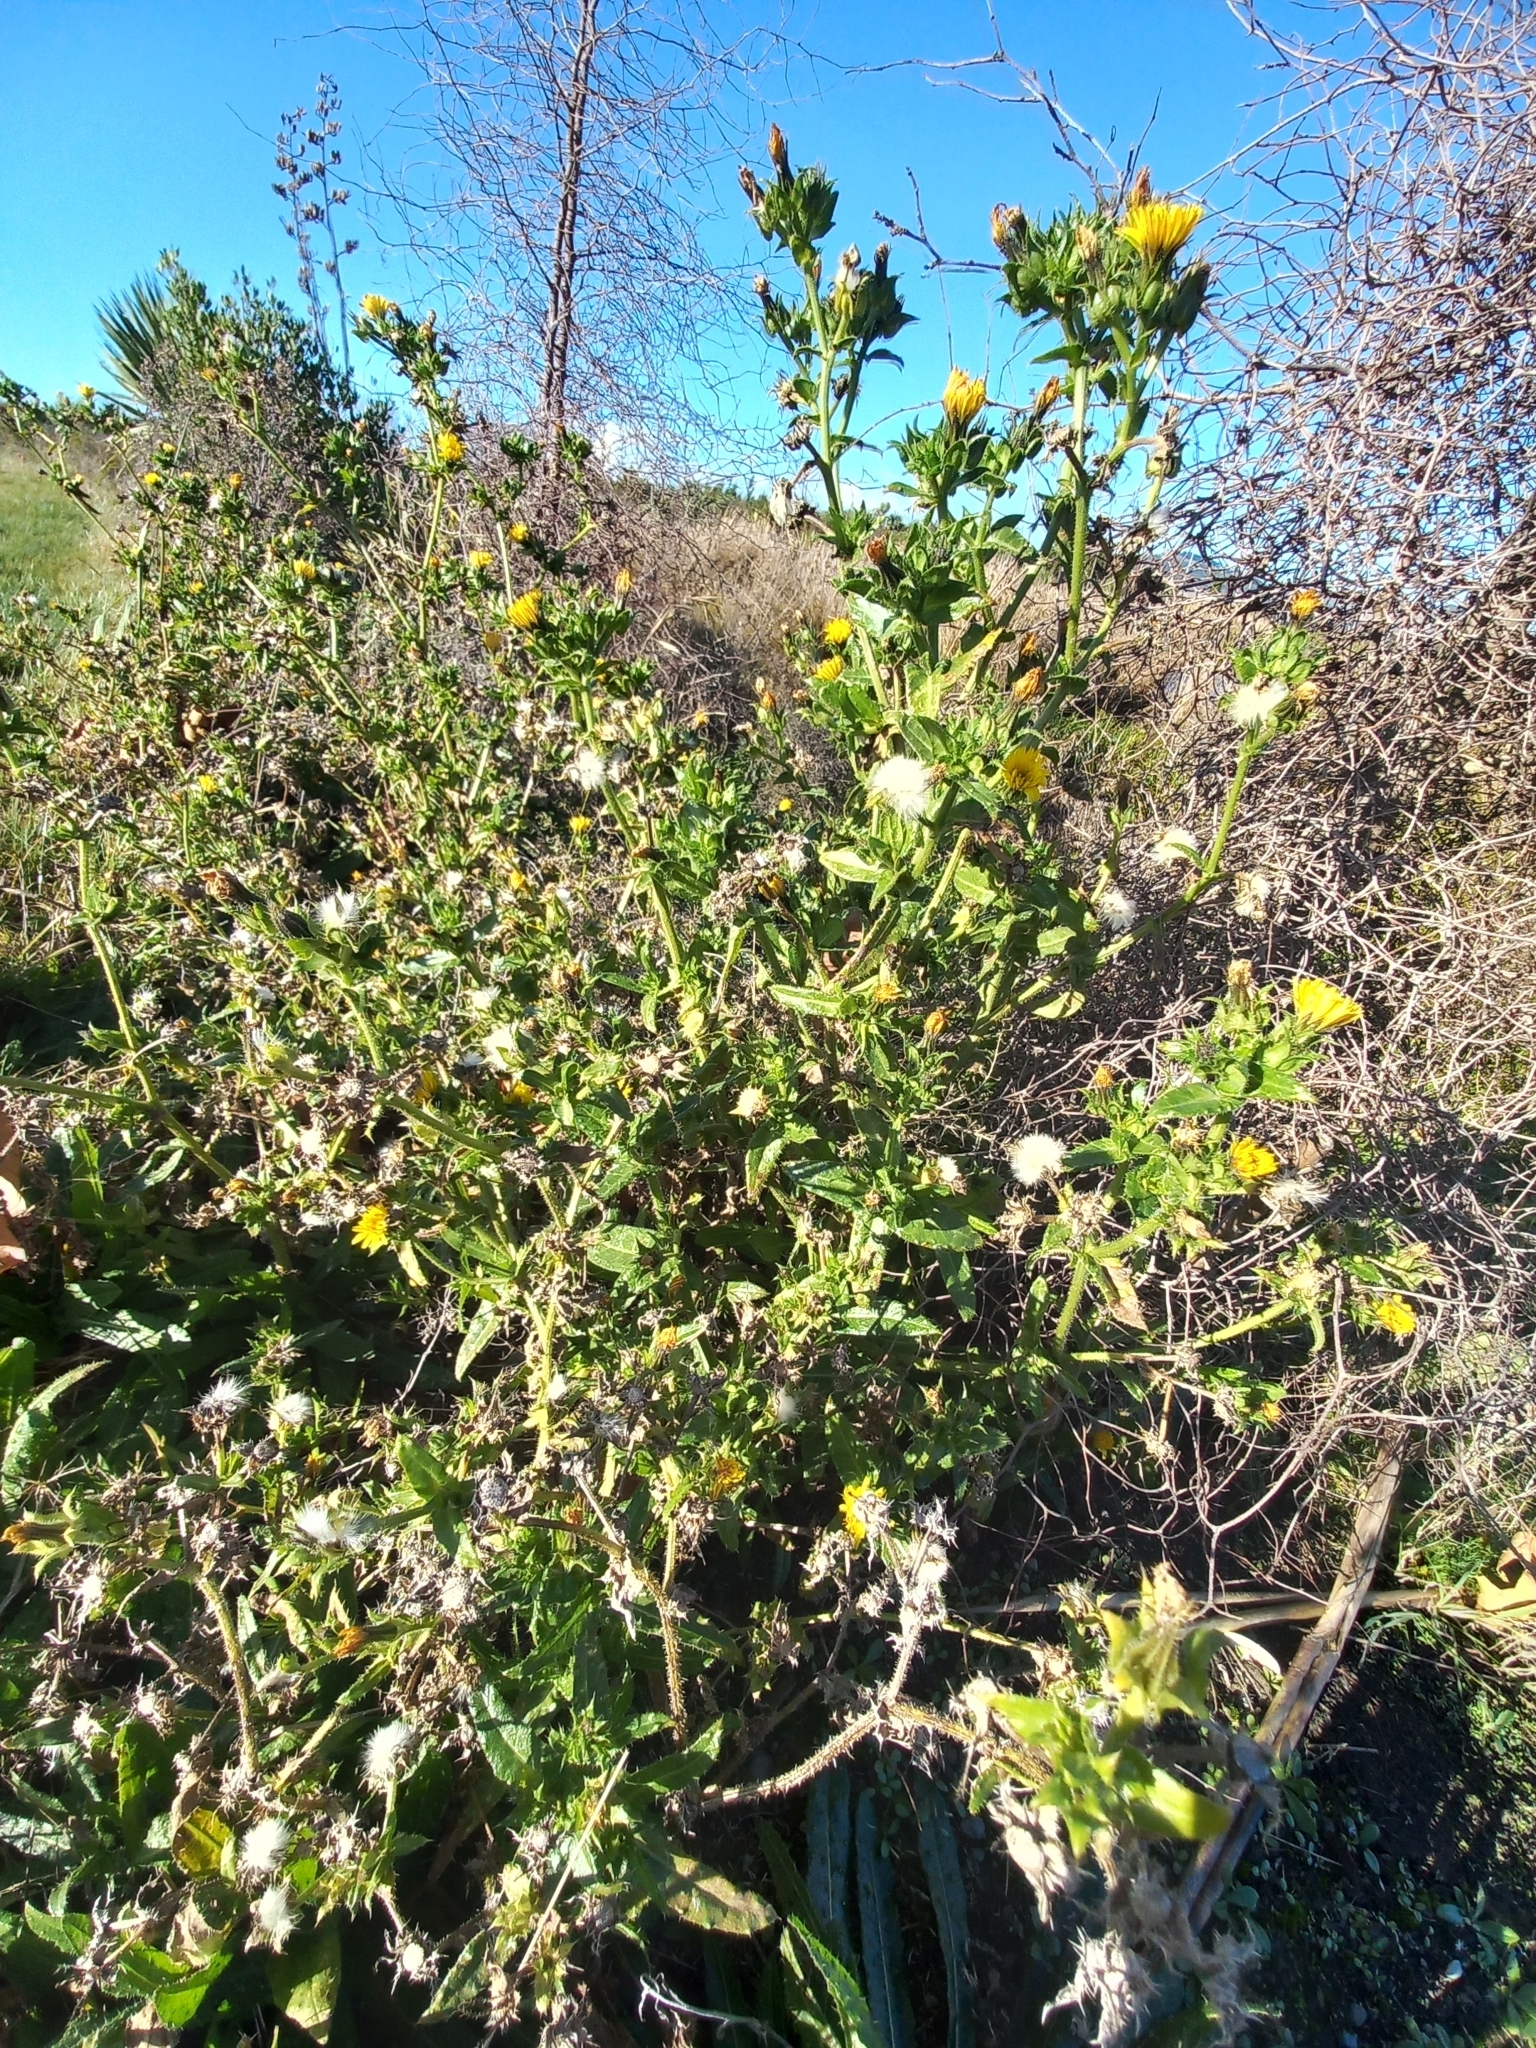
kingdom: Plantae
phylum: Tracheophyta
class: Magnoliopsida
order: Asterales
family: Asteraceae
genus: Helminthotheca
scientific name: Helminthotheca echioides
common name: Ox-tongue
